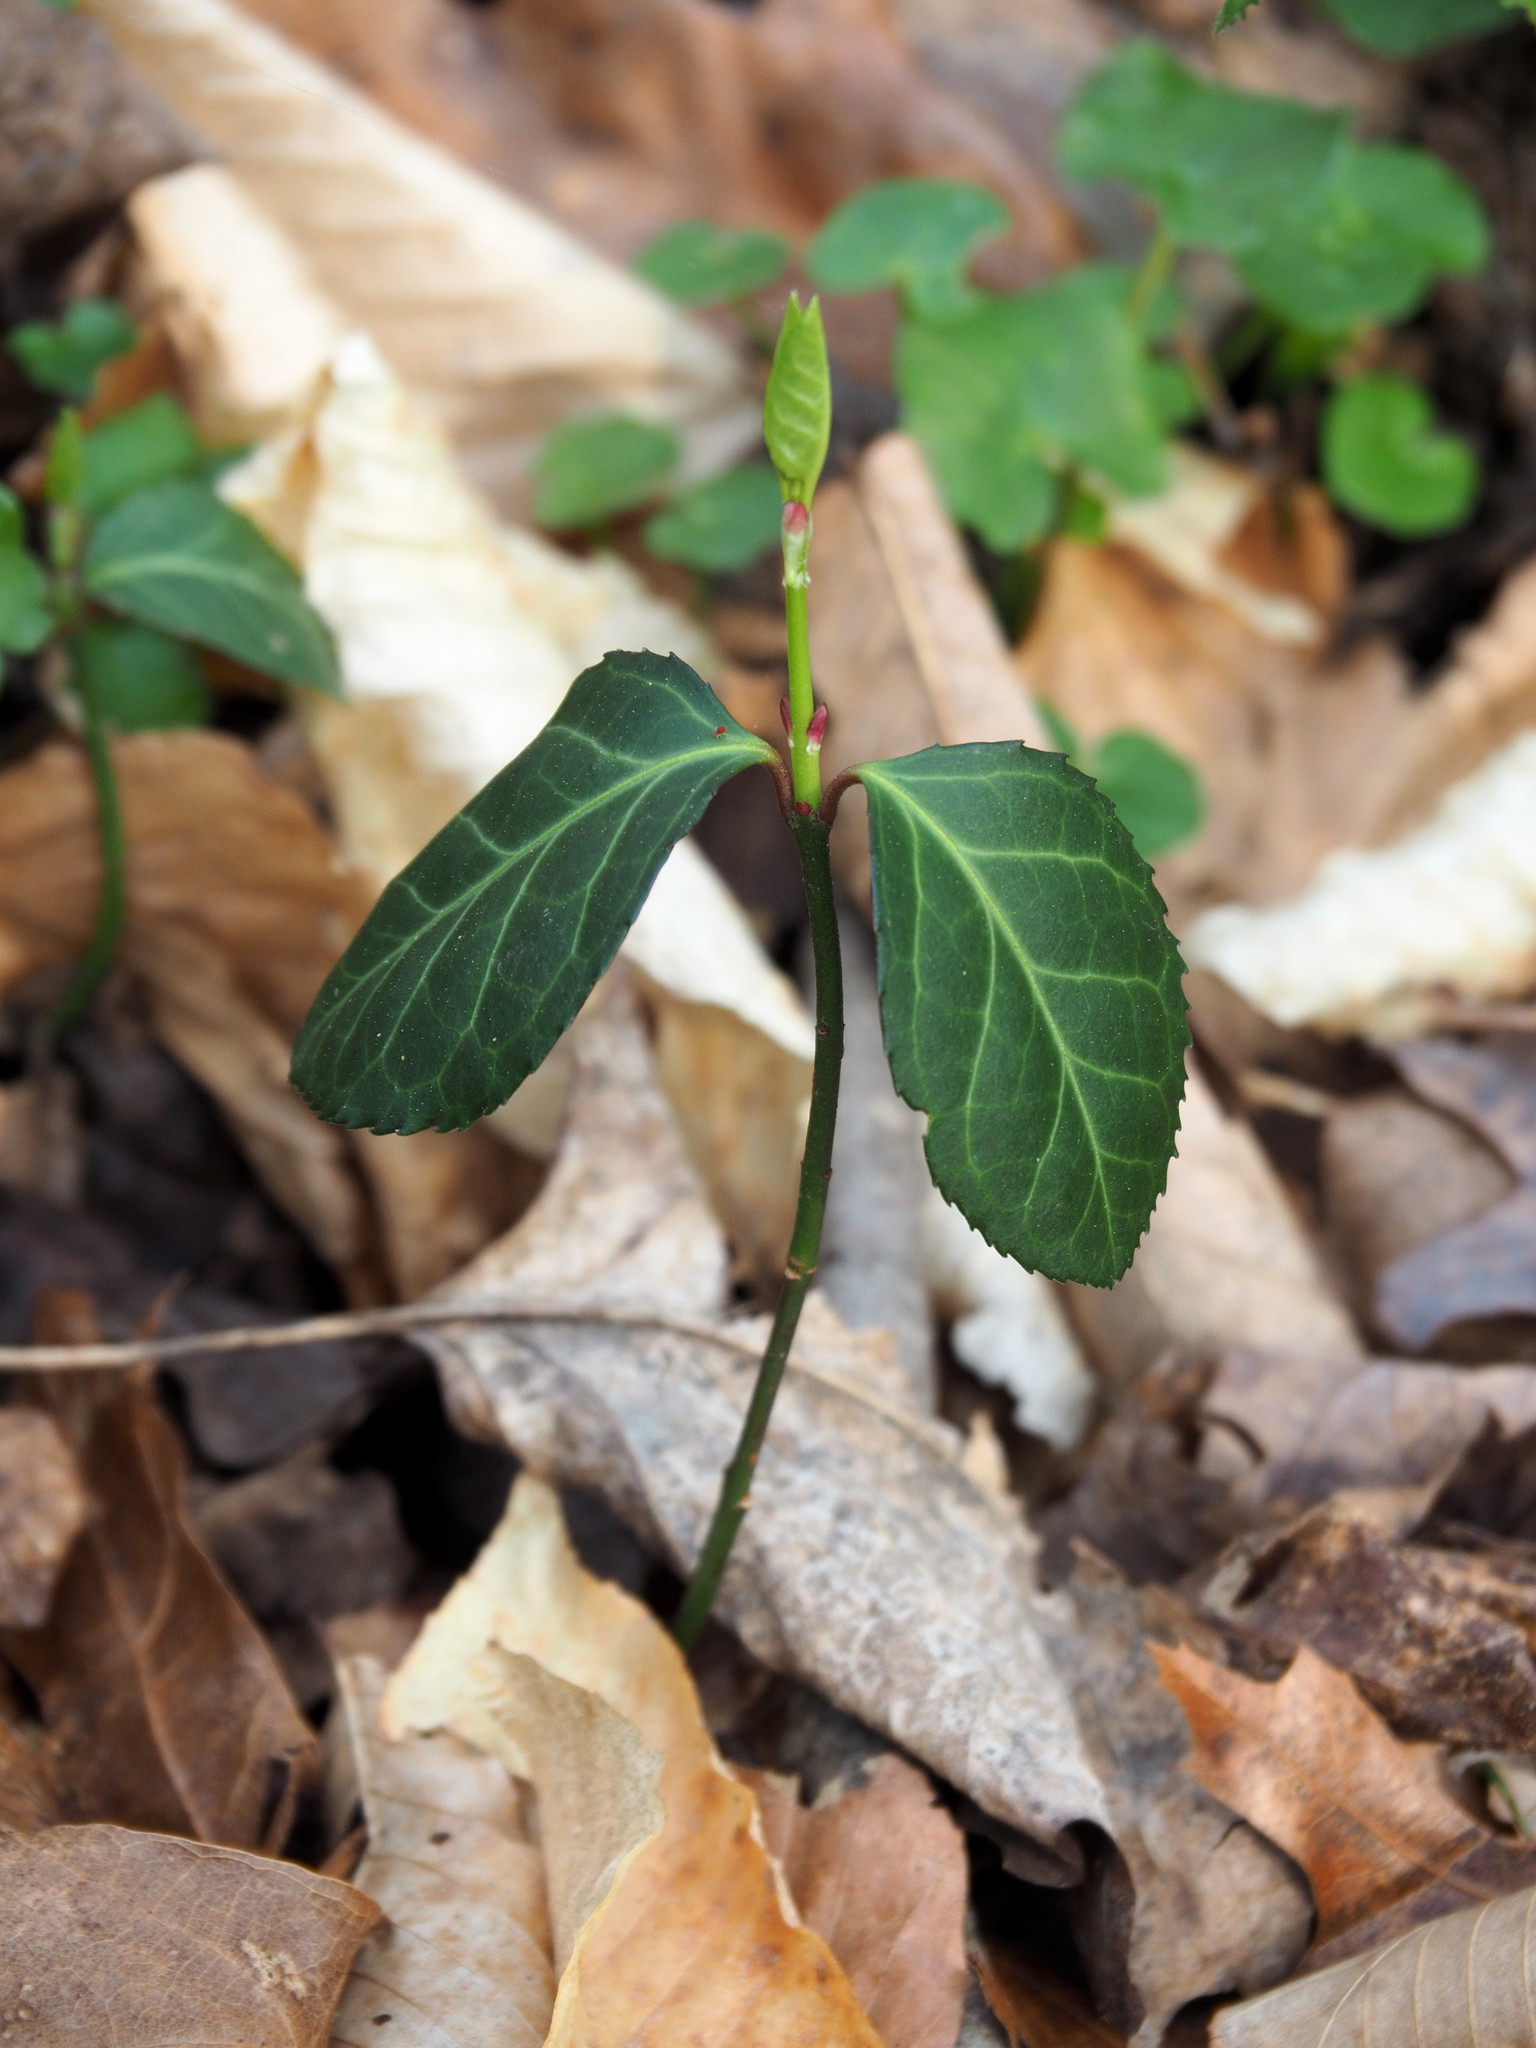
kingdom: Plantae
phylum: Tracheophyta
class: Magnoliopsida
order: Celastrales
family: Celastraceae
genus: Euonymus
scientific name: Euonymus fortunei
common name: Climbing euonymus
